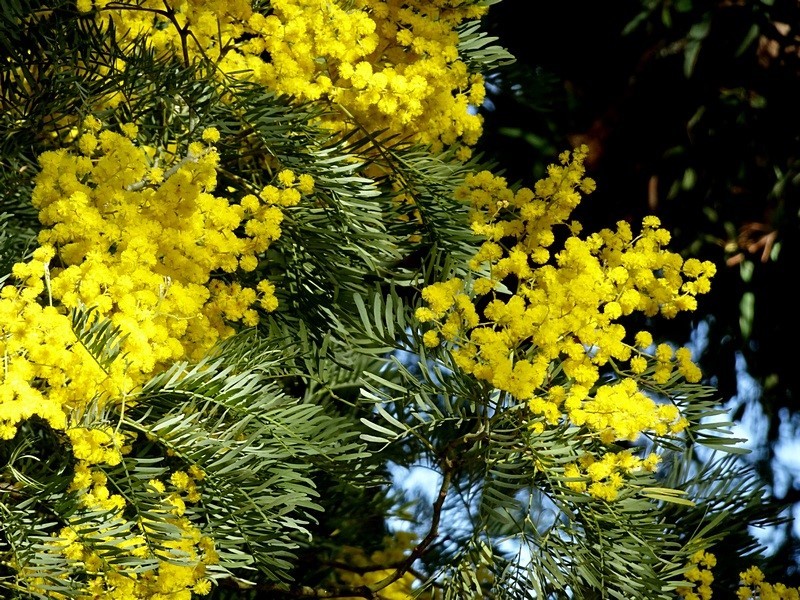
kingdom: Plantae
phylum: Tracheophyta
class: Magnoliopsida
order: Fabales
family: Fabaceae
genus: Acacia
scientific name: Acacia blayana
